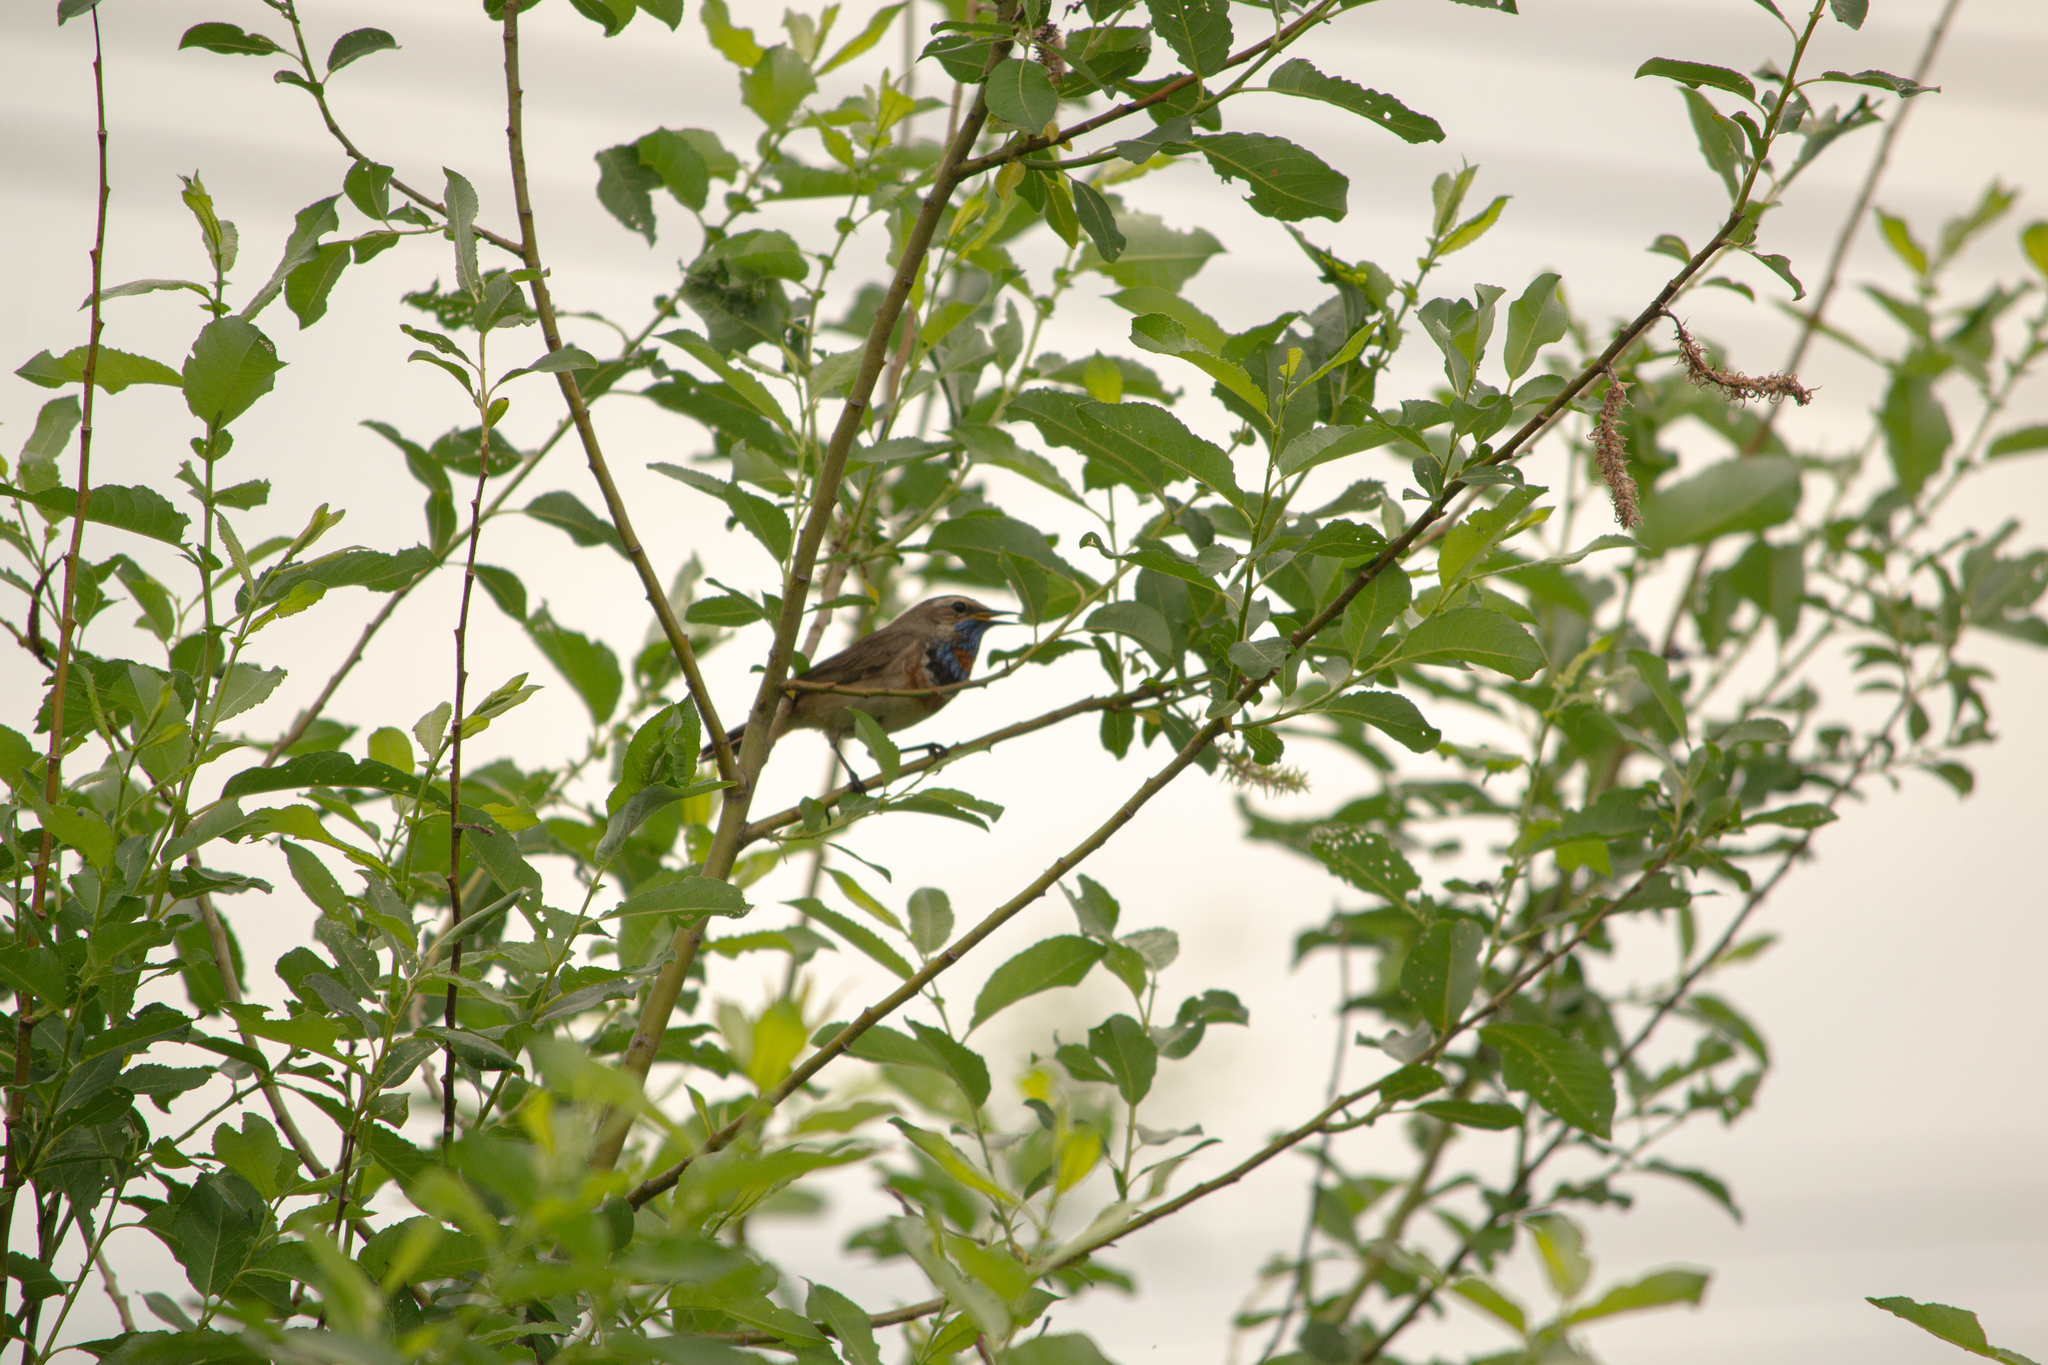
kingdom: Animalia
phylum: Chordata
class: Aves
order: Passeriformes
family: Muscicapidae
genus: Luscinia
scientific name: Luscinia svecica
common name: Bluethroat
